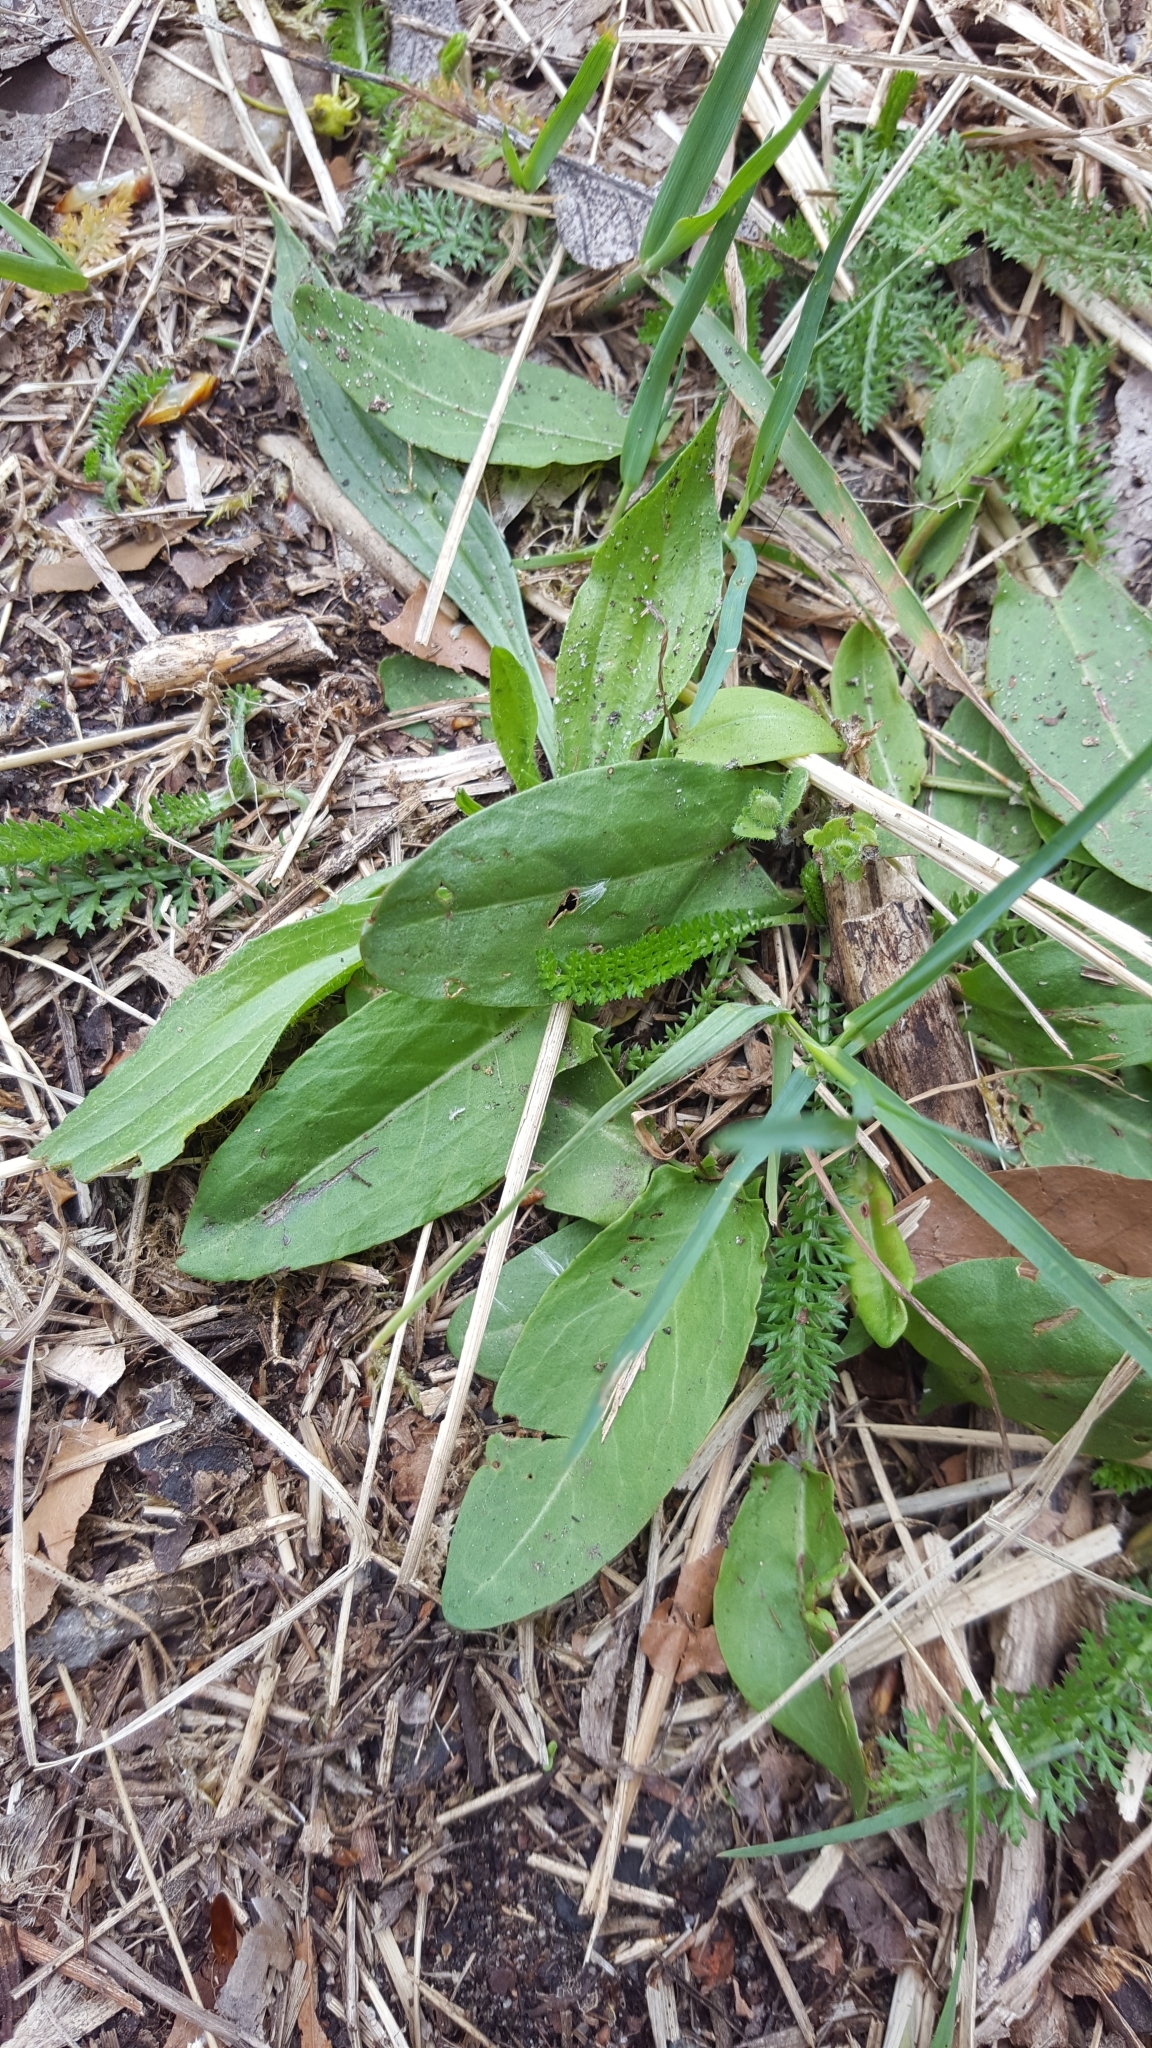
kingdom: Plantae
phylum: Tracheophyta
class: Magnoliopsida
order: Asterales
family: Asteraceae
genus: Achillea
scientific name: Achillea millefolium
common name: Yarrow
